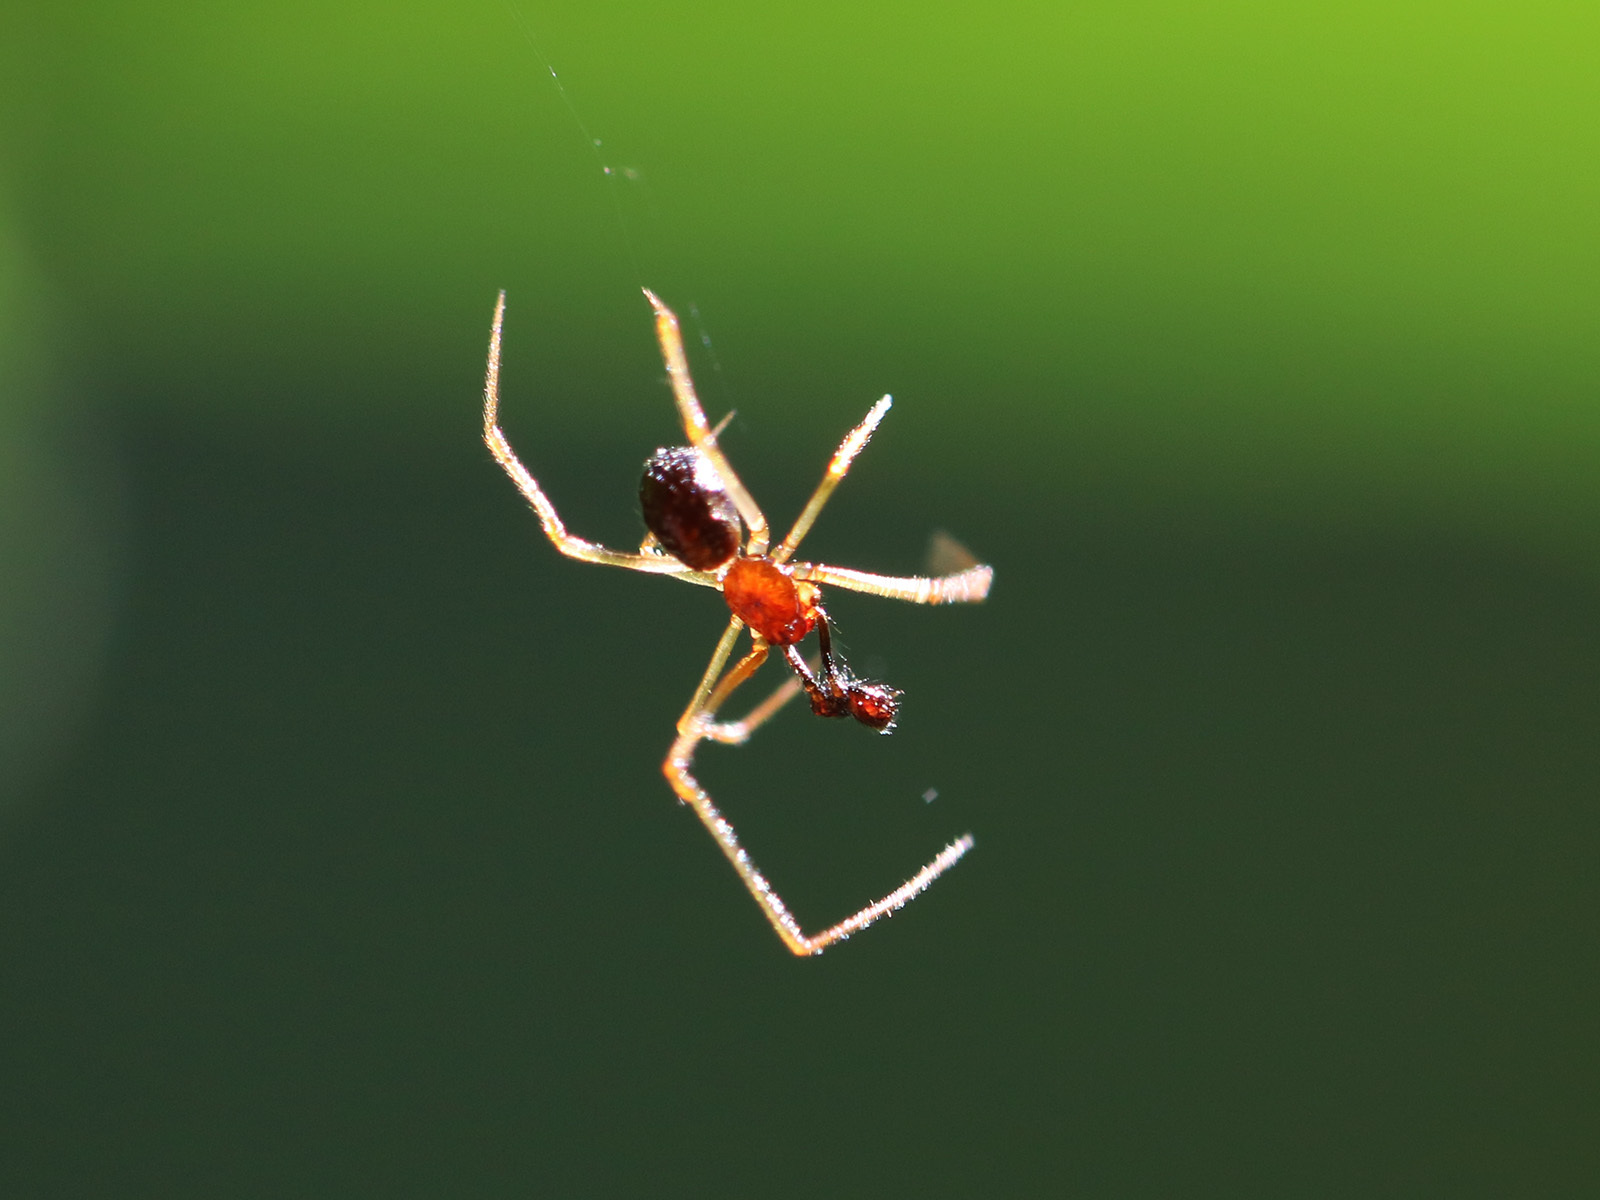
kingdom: Animalia
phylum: Arthropoda
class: Arachnida
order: Araneae
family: Theridiidae
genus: Neottiura
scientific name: Neottiura bimaculata
